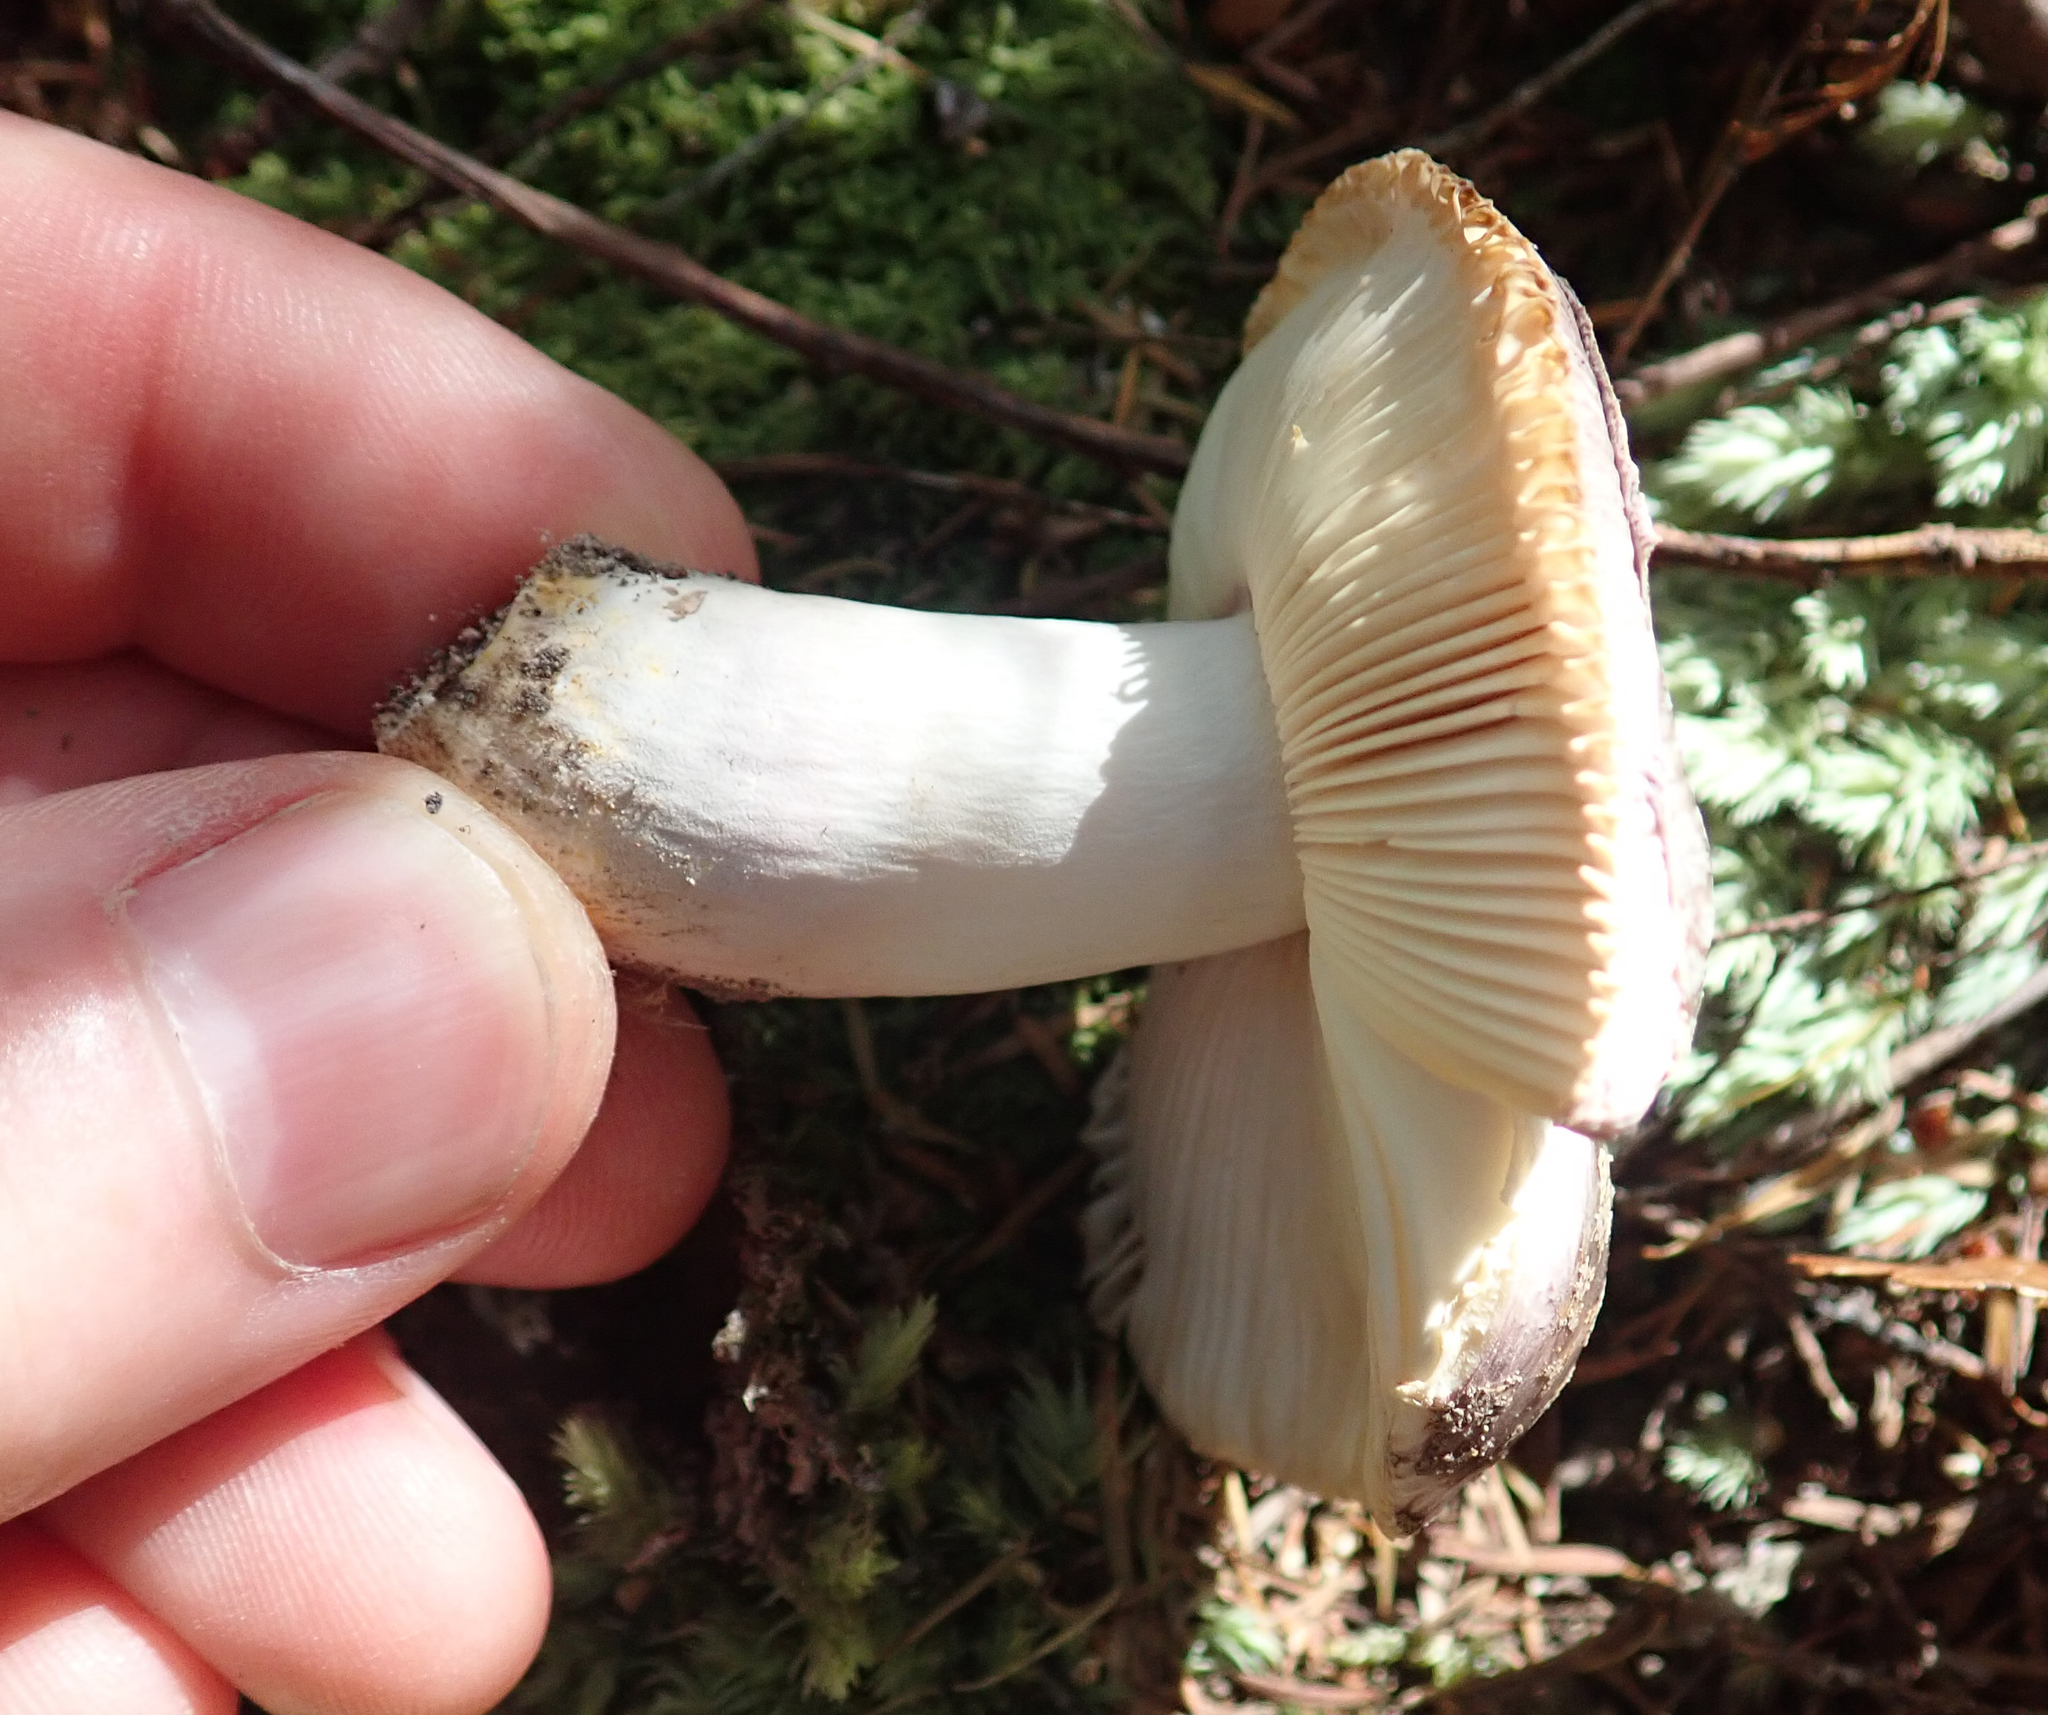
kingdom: Fungi
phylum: Basidiomycota
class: Agaricomycetes
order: Russulales
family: Russulaceae
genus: Russula
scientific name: Russula griseoviridis
